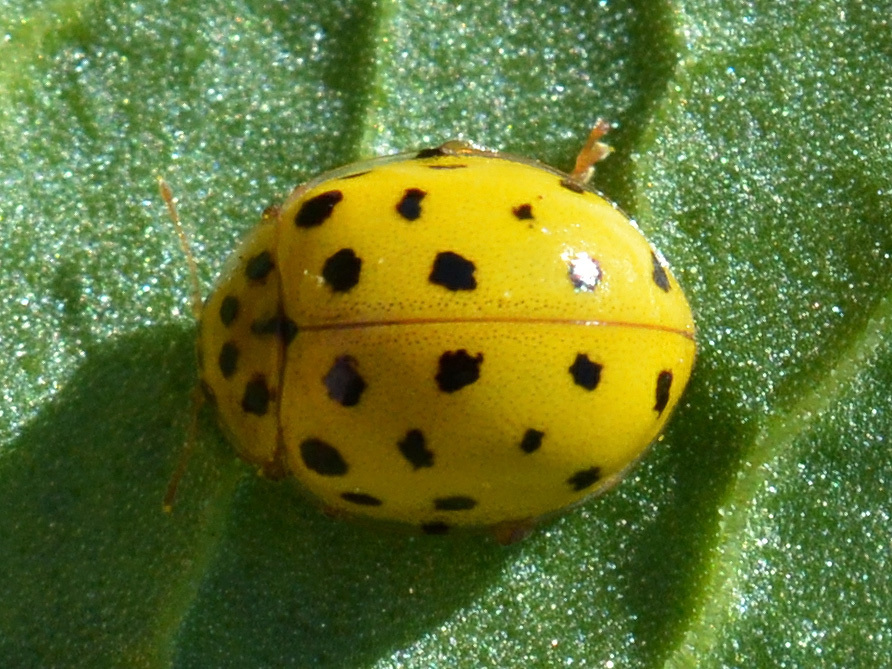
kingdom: Animalia
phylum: Arthropoda
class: Insecta
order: Coleoptera
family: Coccinellidae
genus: Psyllobora
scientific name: Psyllobora vigintiduopunctata
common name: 22-spot ladybird
